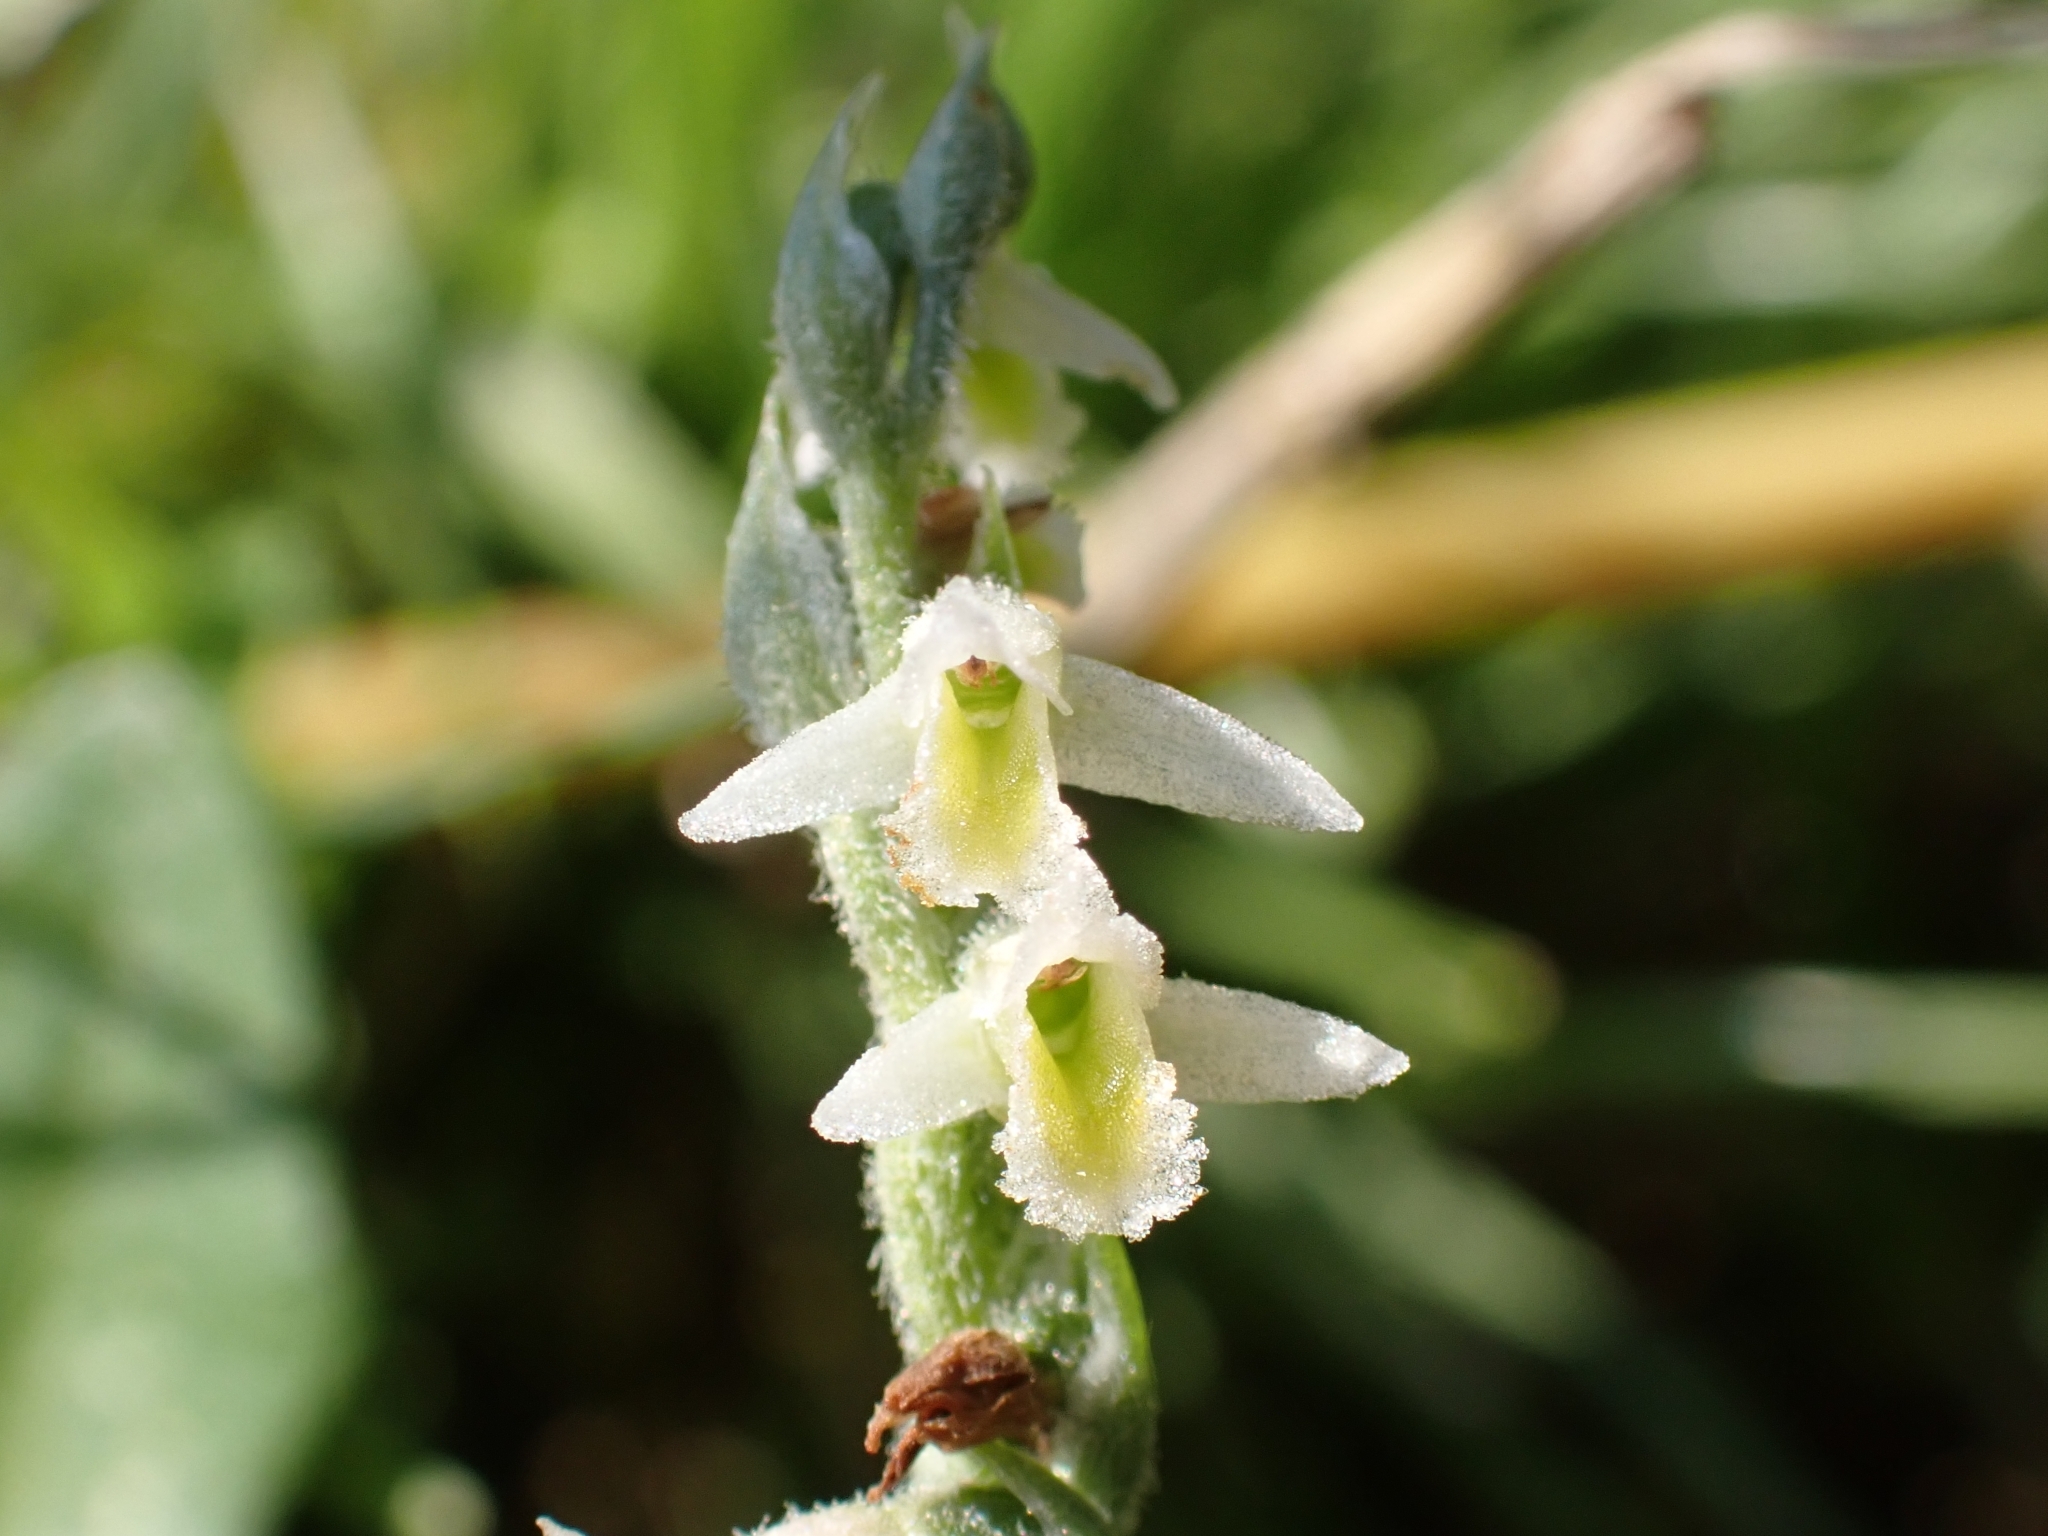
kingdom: Plantae
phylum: Tracheophyta
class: Liliopsida
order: Asparagales
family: Orchidaceae
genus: Spiranthes
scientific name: Spiranthes spiralis
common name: Autumn lady's-tresses
